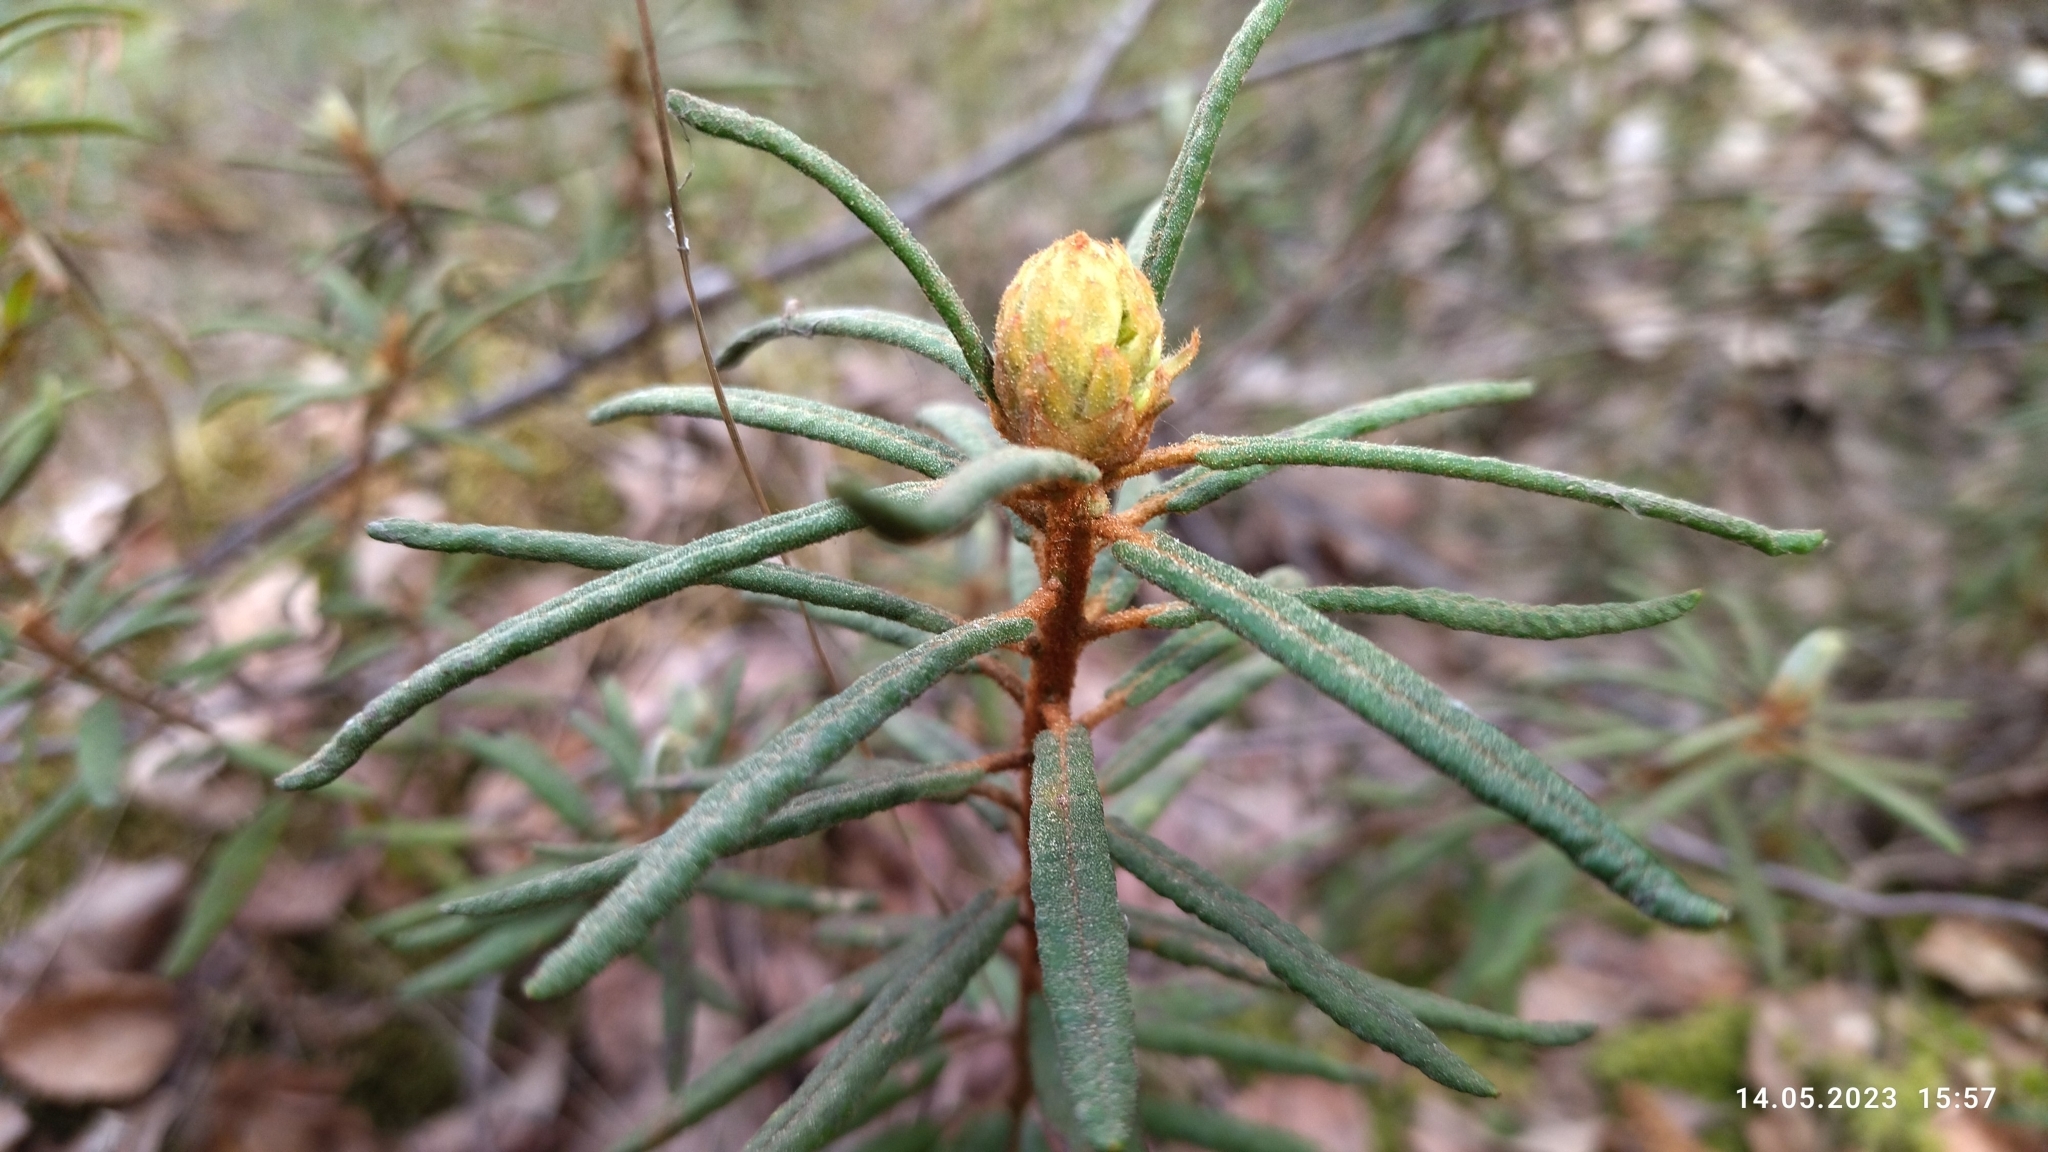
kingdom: Plantae
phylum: Tracheophyta
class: Magnoliopsida
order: Ericales
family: Ericaceae
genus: Rhododendron
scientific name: Rhododendron tomentosum
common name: Marsh labrador tea
